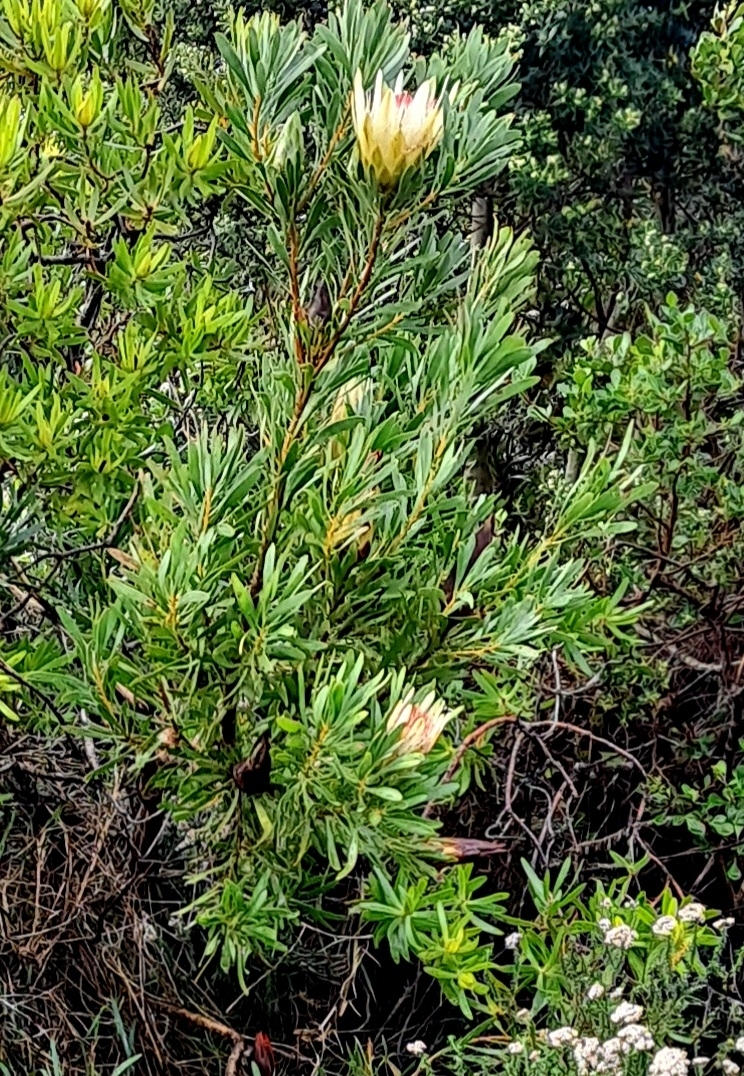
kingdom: Plantae
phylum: Tracheophyta
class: Magnoliopsida
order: Proteales
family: Proteaceae
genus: Protea
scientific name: Protea repens
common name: Sugarbush
